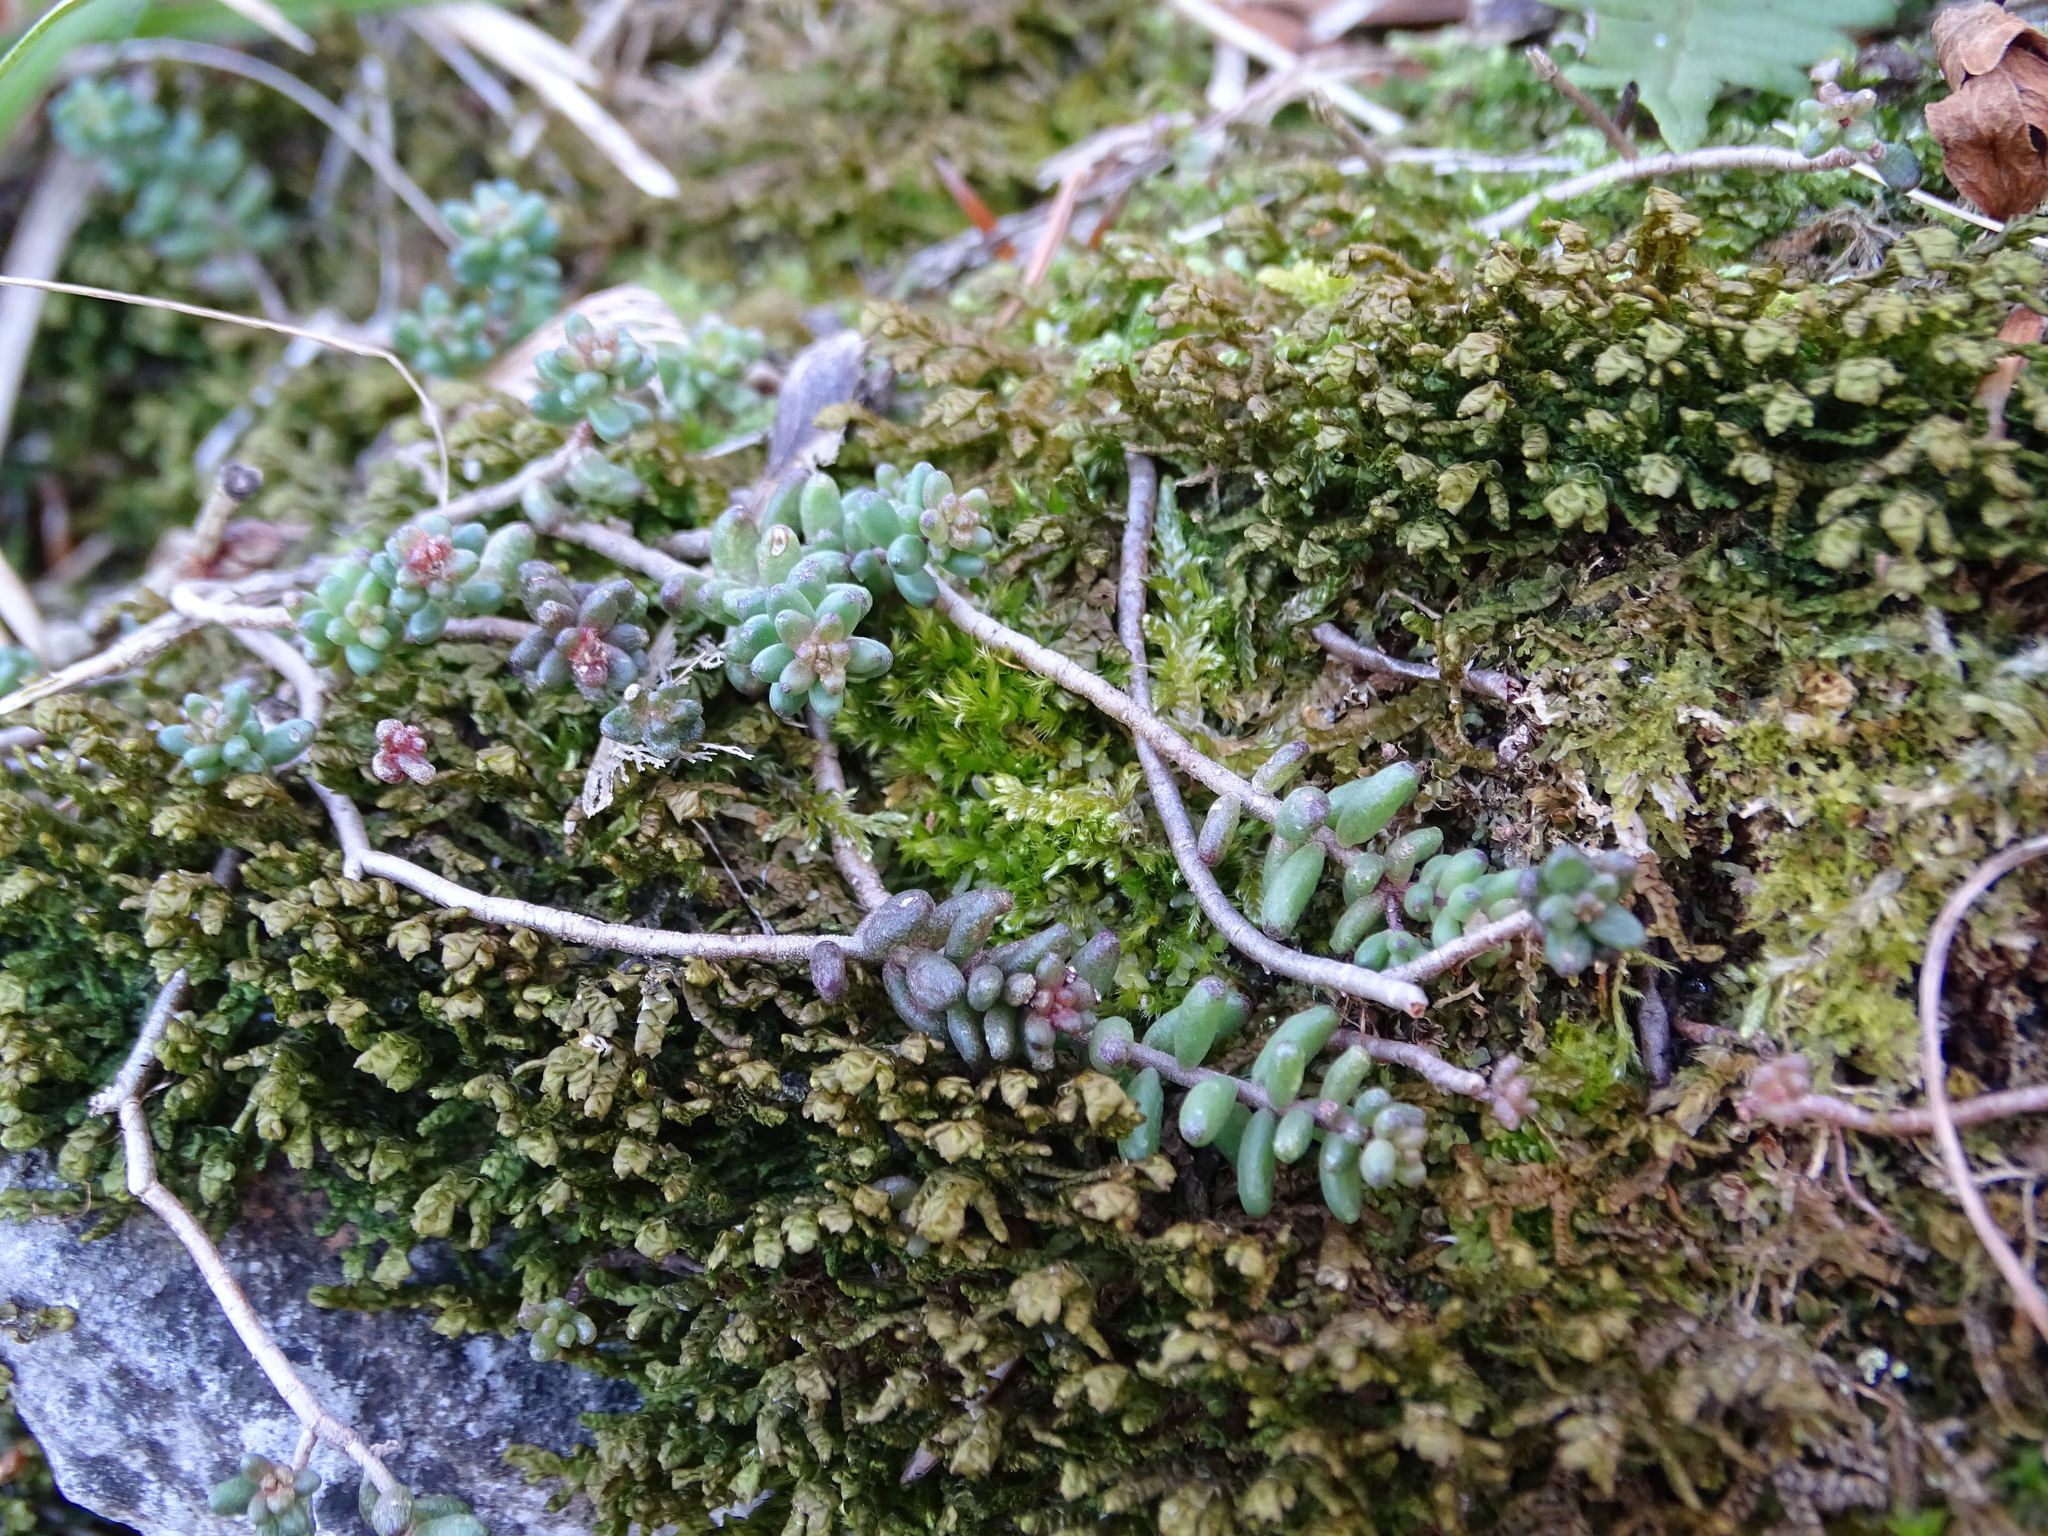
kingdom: Plantae
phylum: Tracheophyta
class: Magnoliopsida
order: Saxifragales
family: Crassulaceae
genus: Sedum
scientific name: Sedum album
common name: White stonecrop
